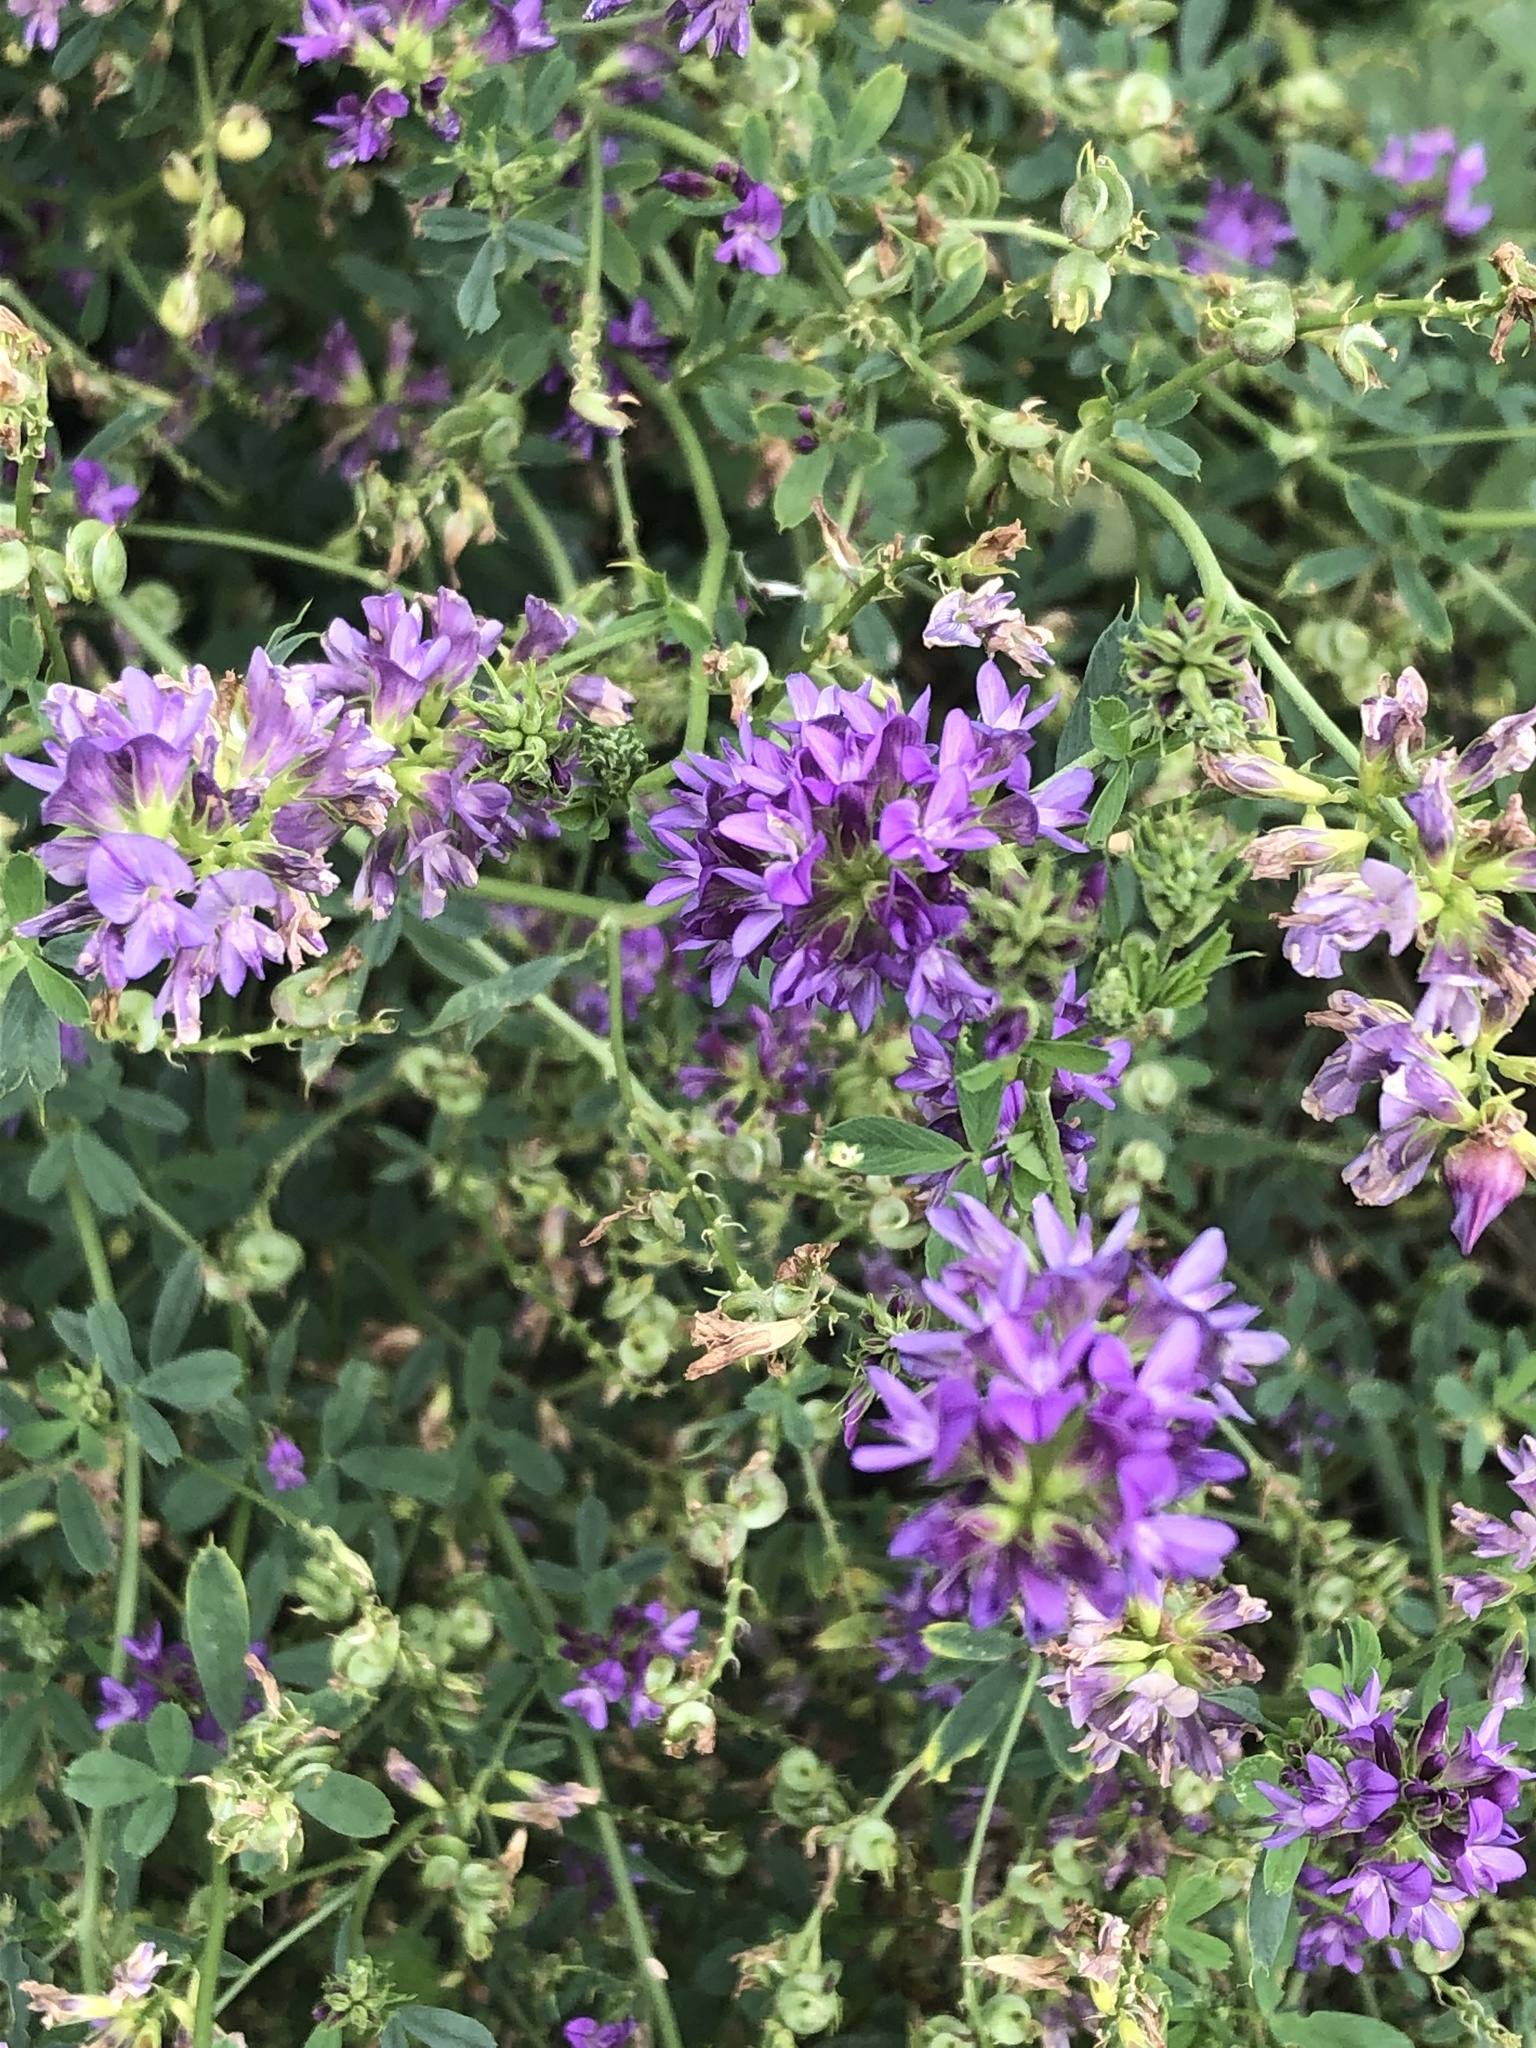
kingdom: Plantae
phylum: Tracheophyta
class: Magnoliopsida
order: Fabales
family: Fabaceae
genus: Medicago
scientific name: Medicago sativa
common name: Alfalfa
